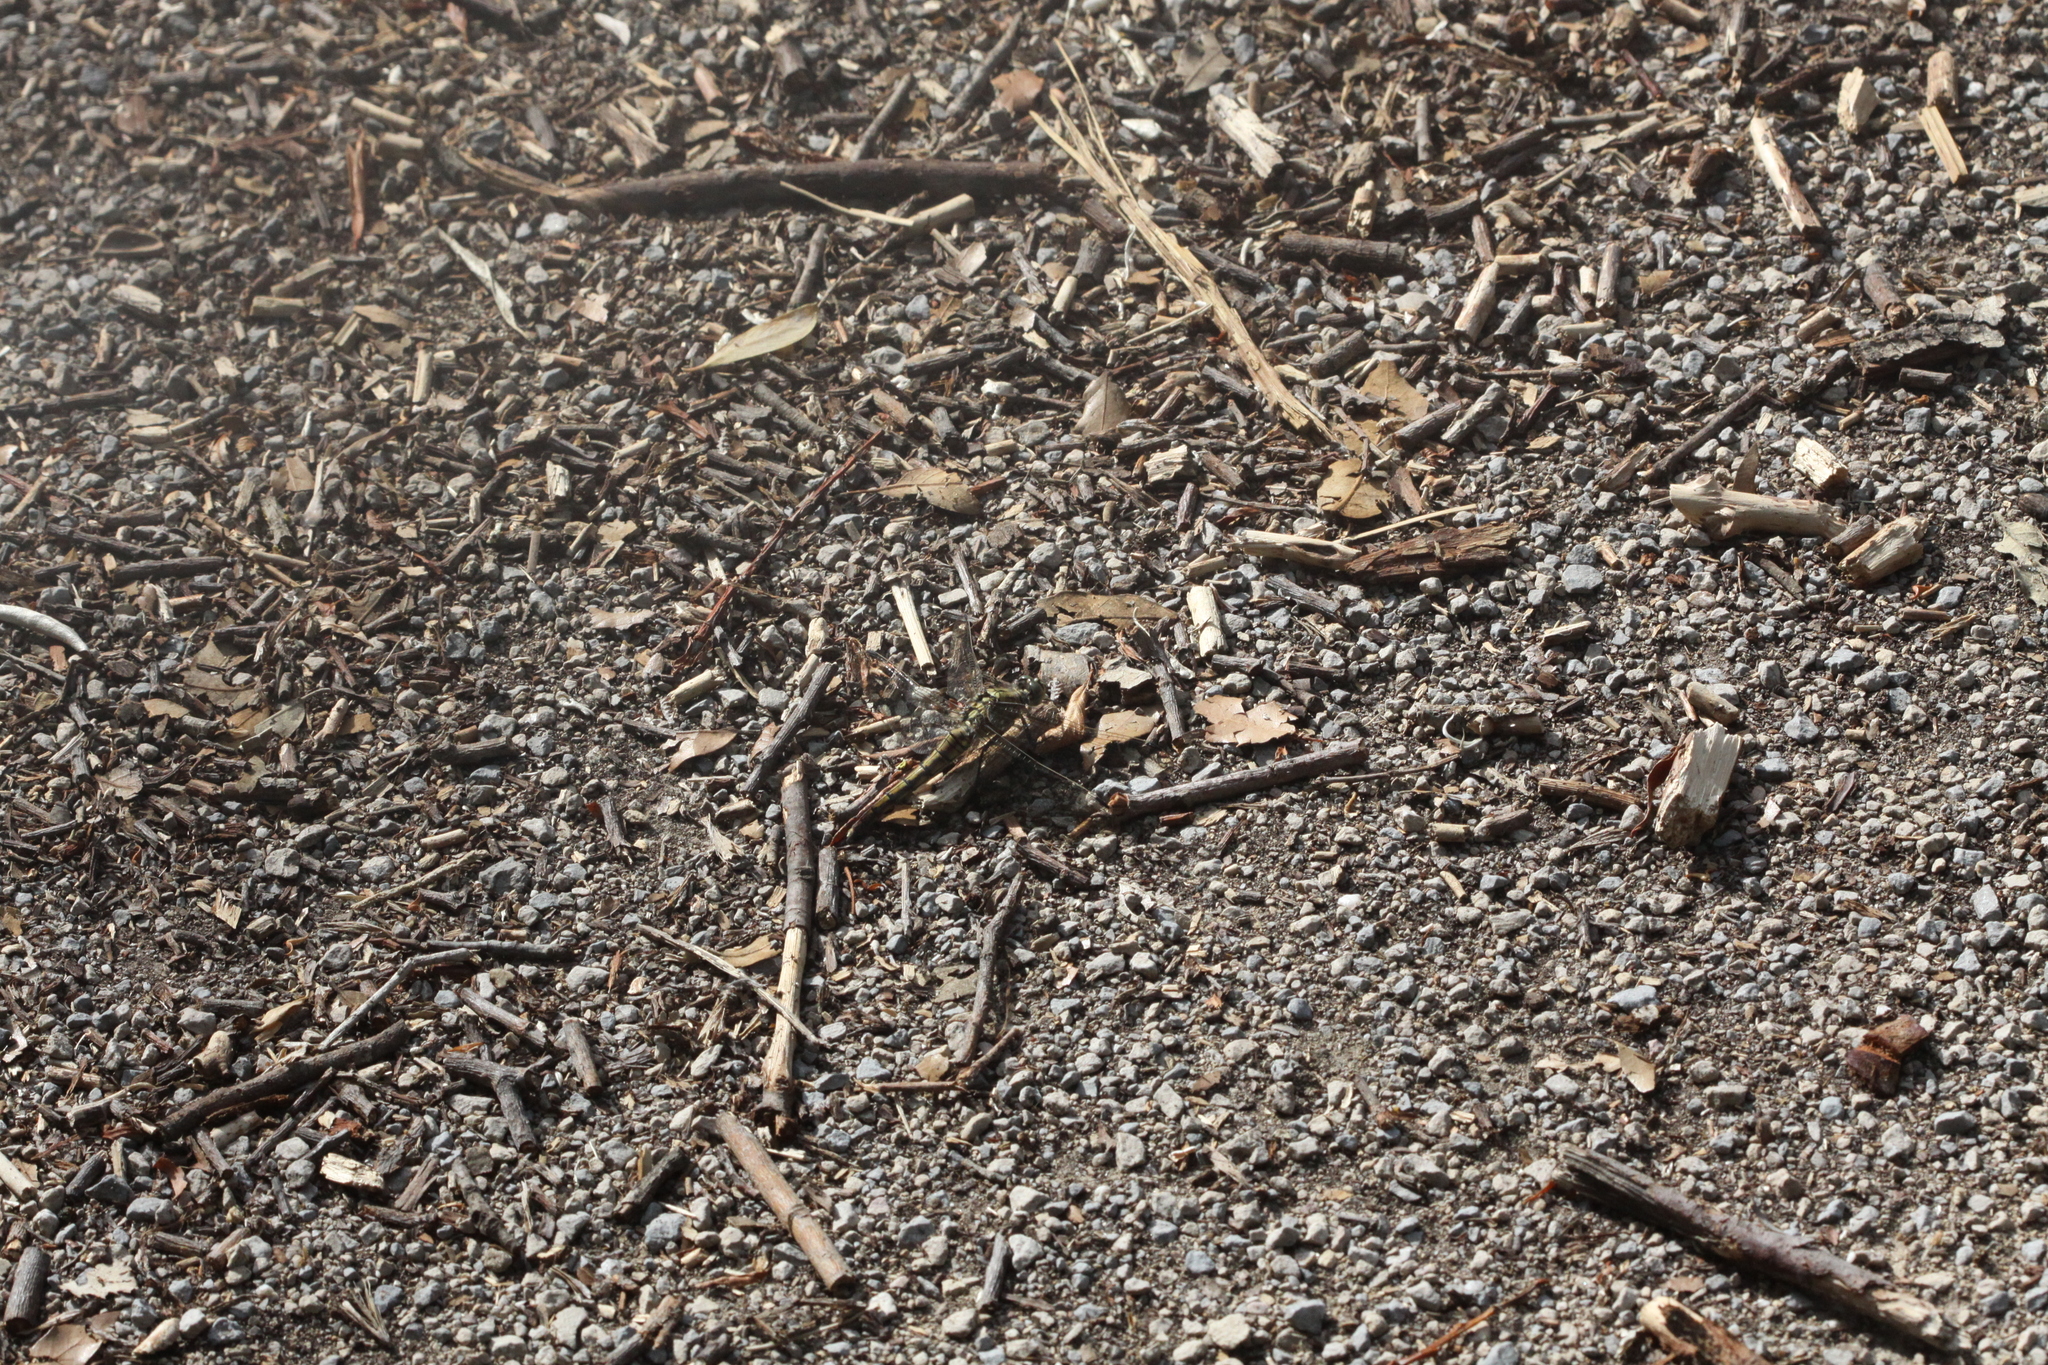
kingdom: Animalia
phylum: Arthropoda
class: Insecta
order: Odonata
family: Libellulidae
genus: Orthetrum
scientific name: Orthetrum cancellatum
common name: Black-tailed skimmer
